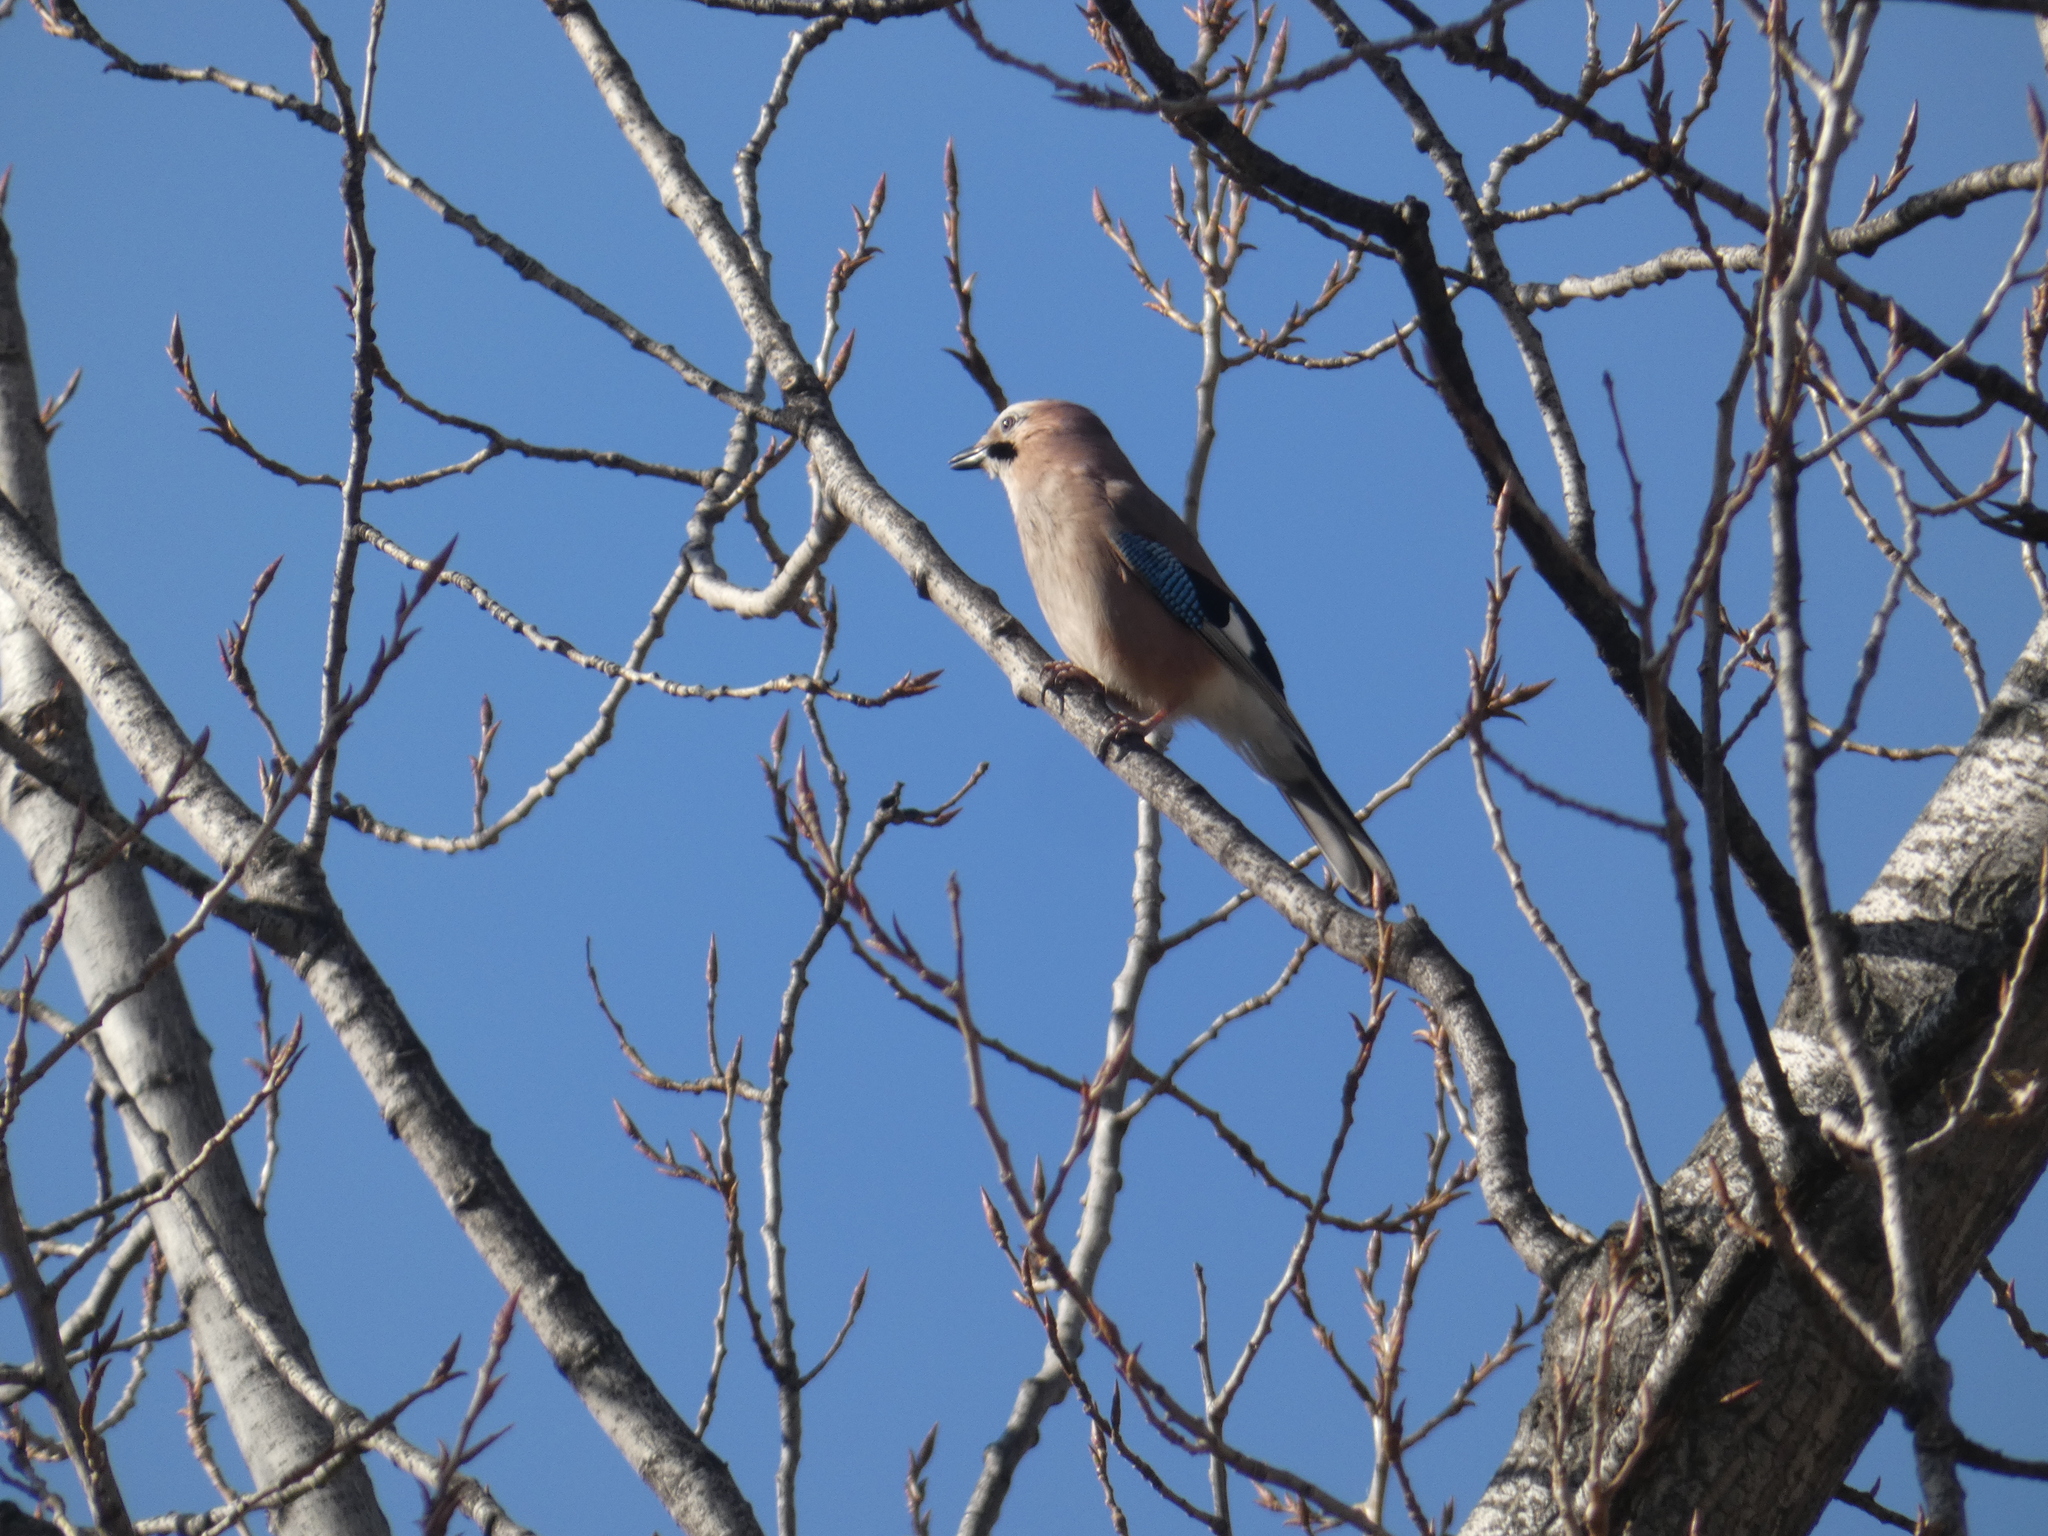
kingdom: Animalia
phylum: Chordata
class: Aves
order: Passeriformes
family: Corvidae
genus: Garrulus
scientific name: Garrulus glandarius
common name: Eurasian jay
